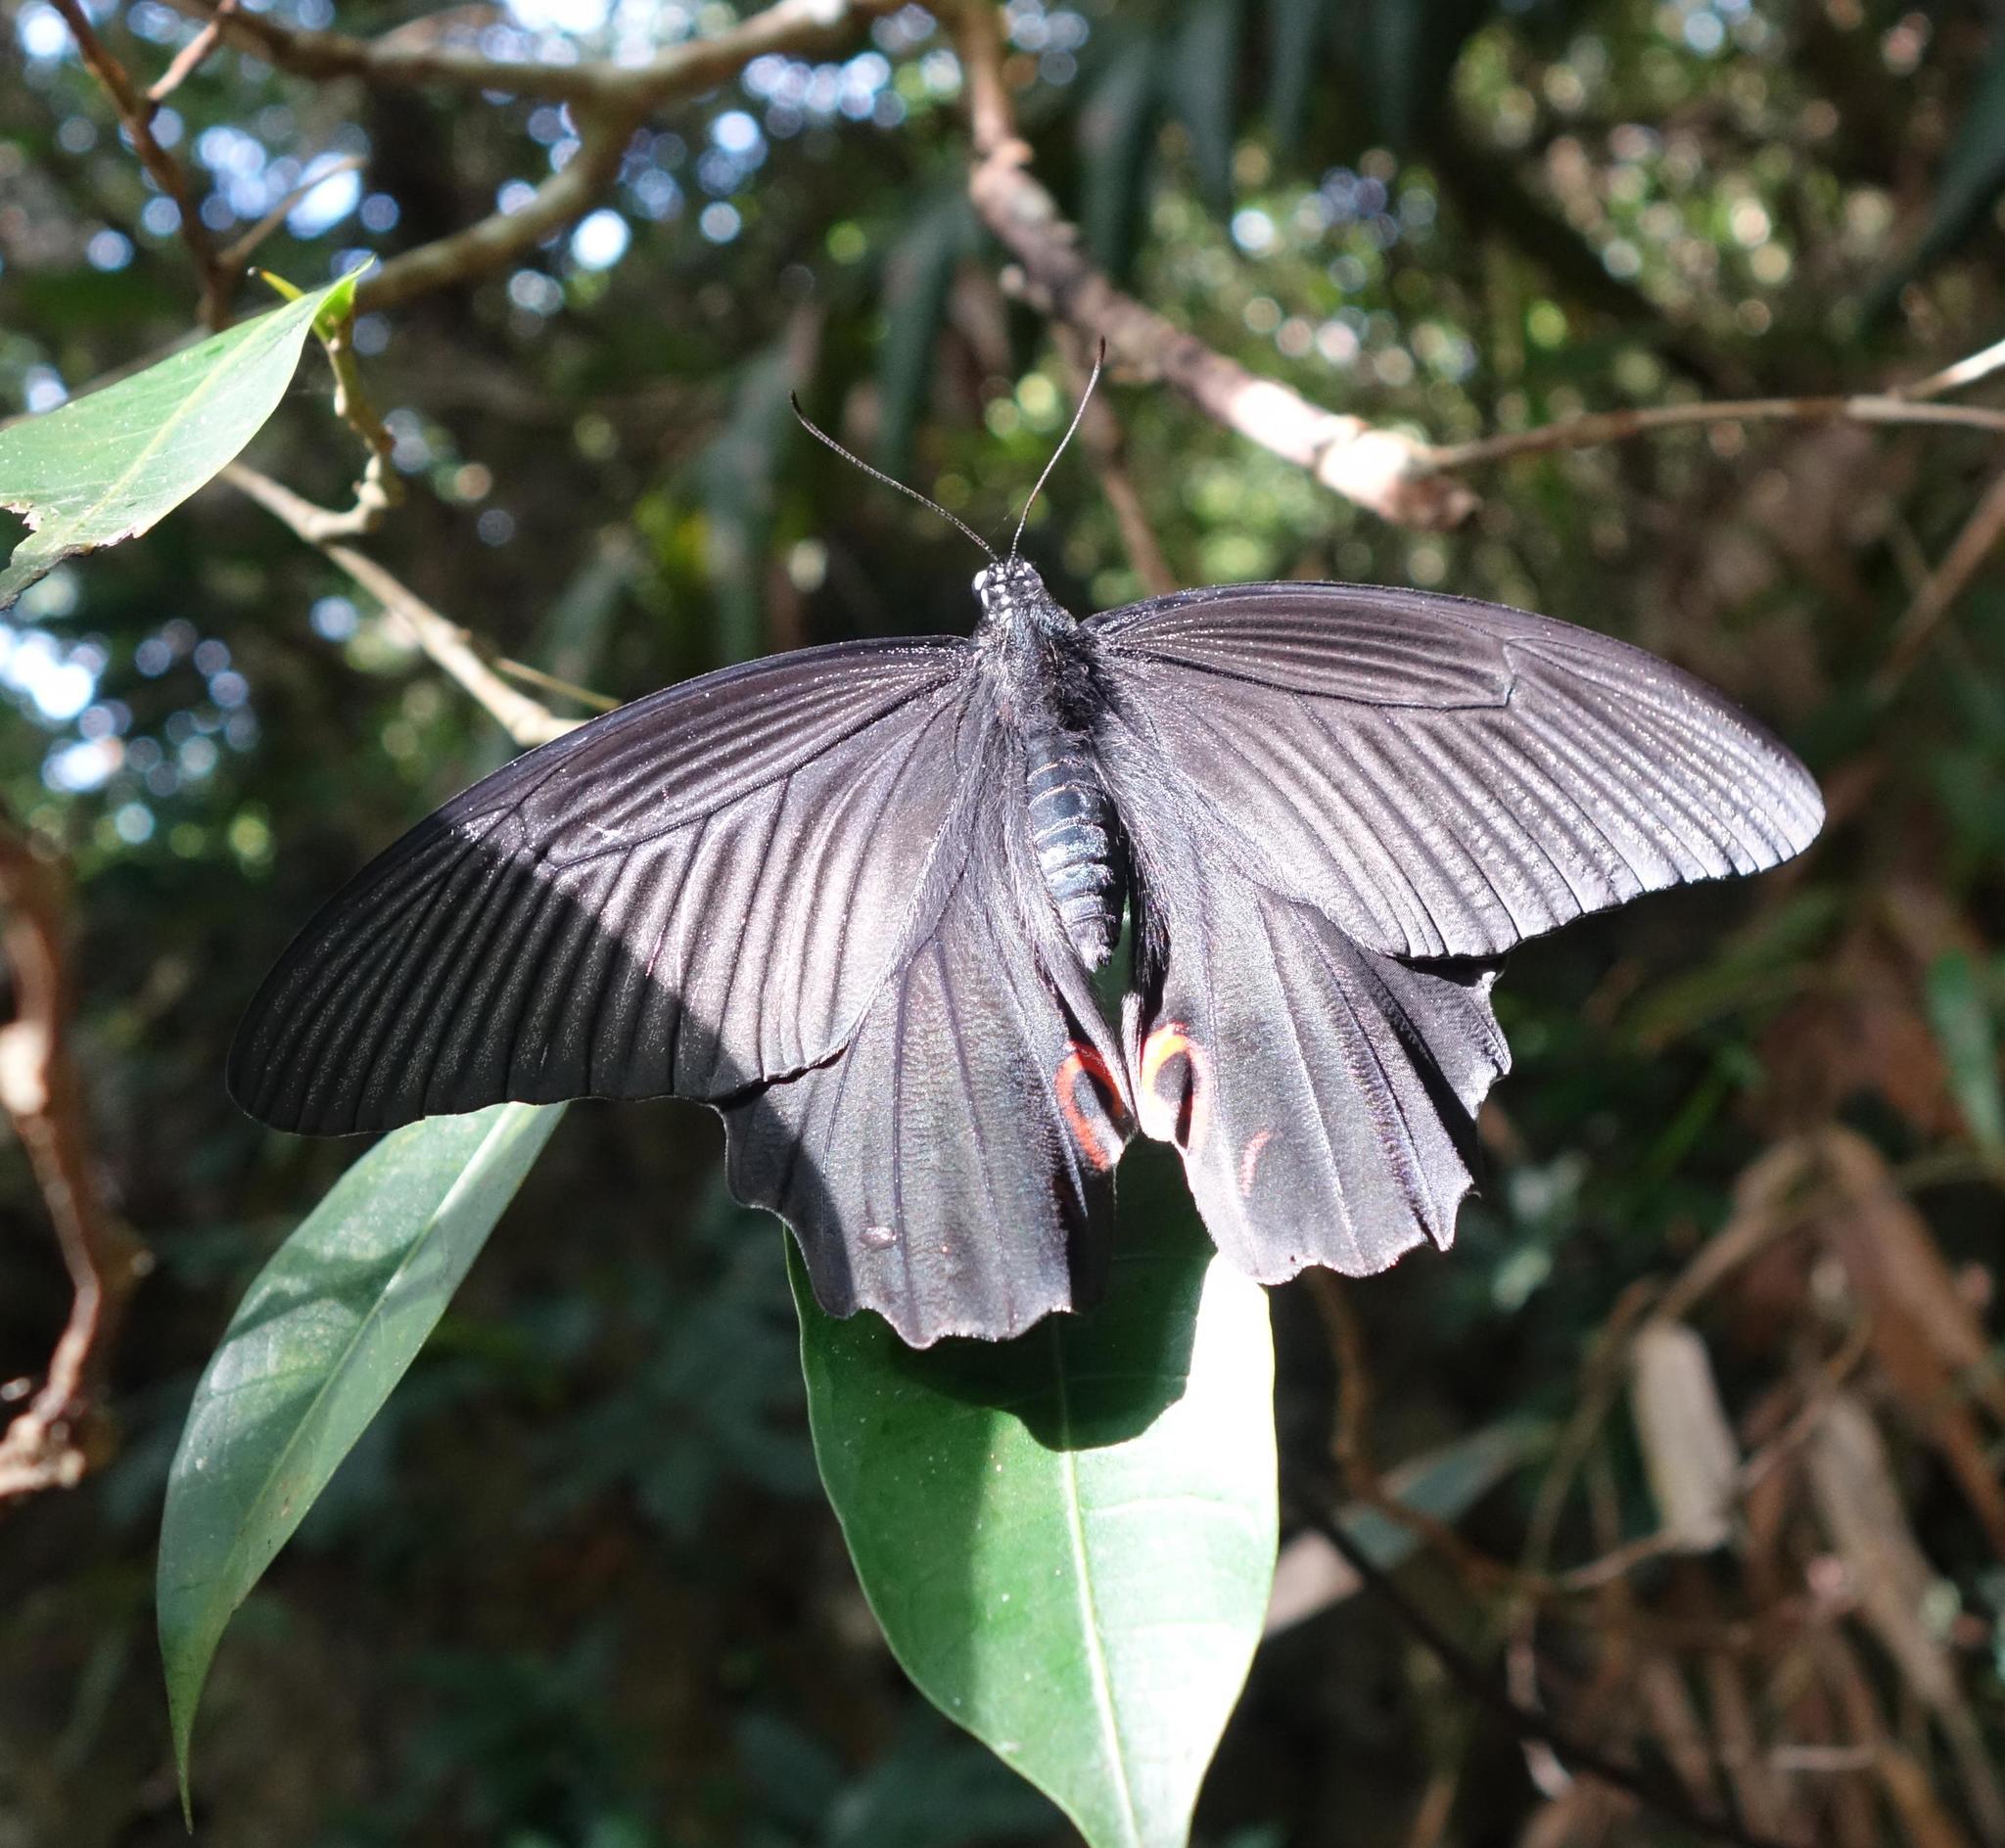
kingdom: Animalia
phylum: Arthropoda
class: Insecta
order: Lepidoptera
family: Papilionidae
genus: Papilio
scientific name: Papilio protenor
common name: Spangle
